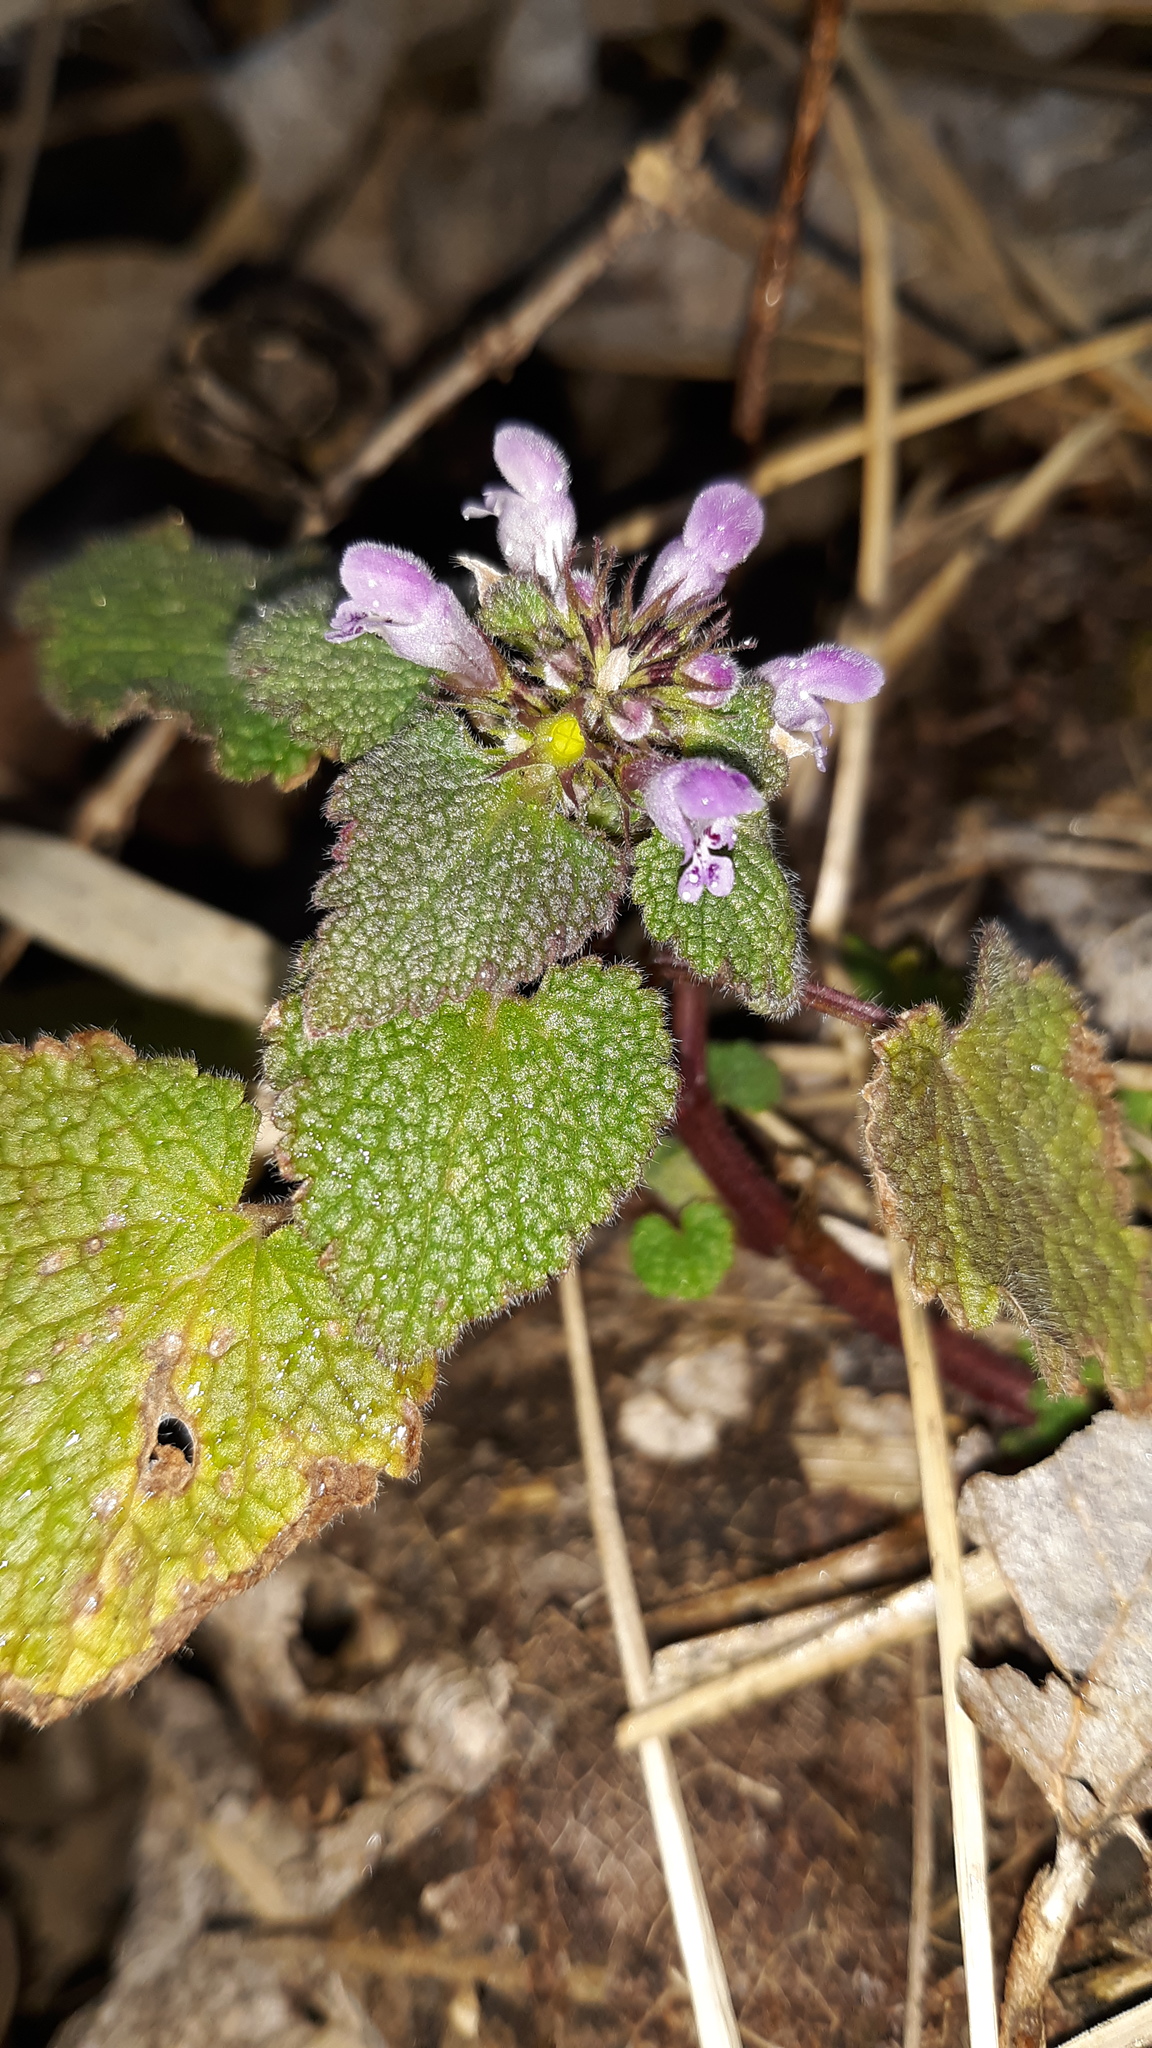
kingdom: Plantae
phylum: Tracheophyta
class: Magnoliopsida
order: Lamiales
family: Lamiaceae
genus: Lamium
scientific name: Lamium purpureum
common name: Red dead-nettle
